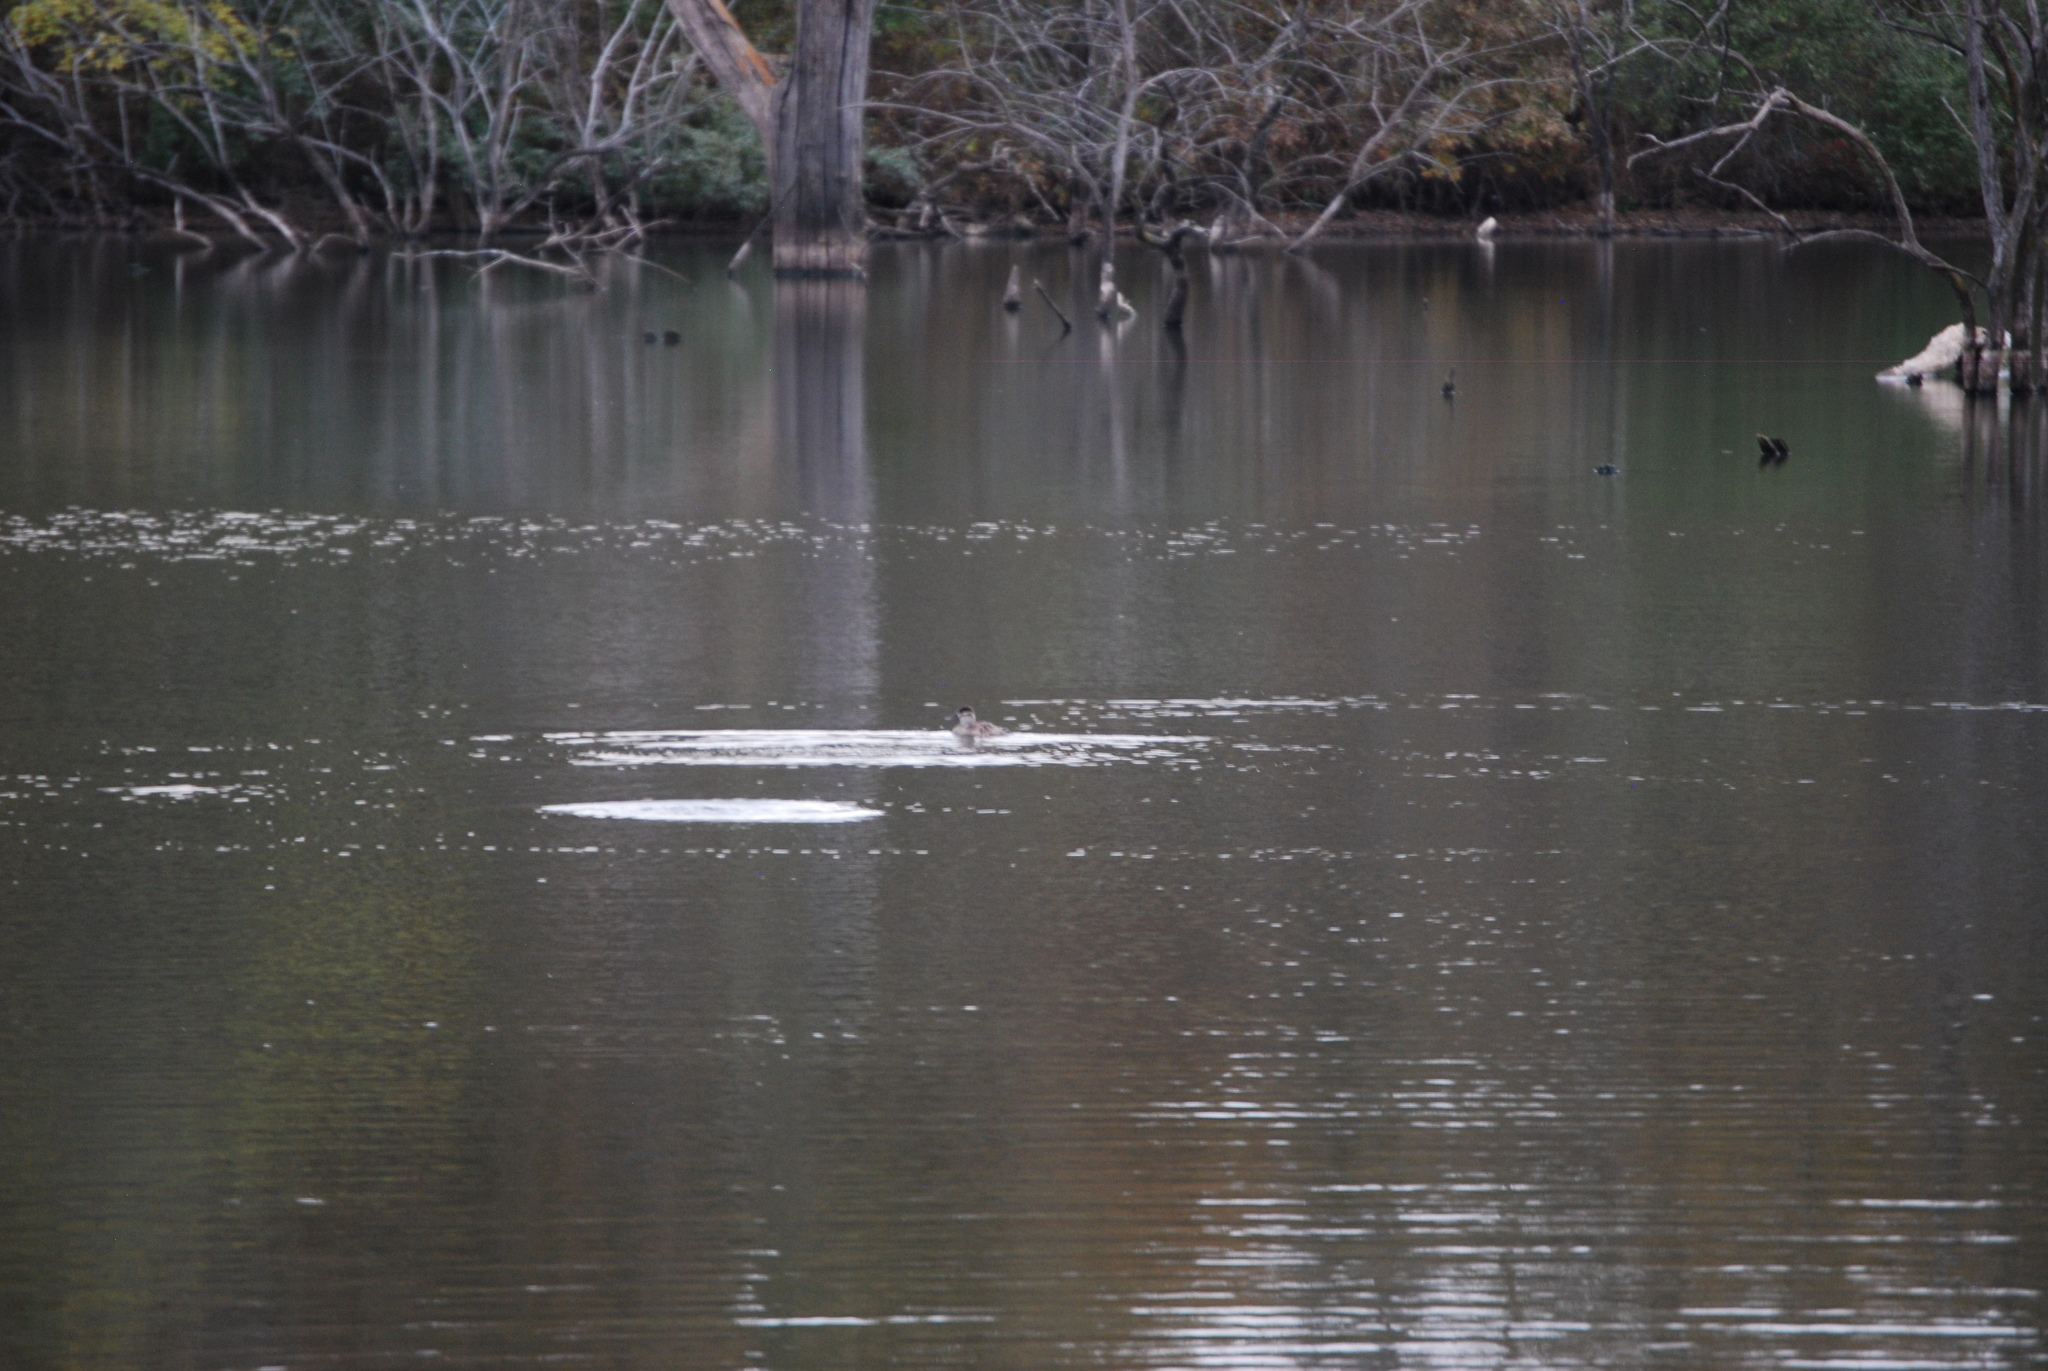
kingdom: Animalia
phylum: Chordata
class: Aves
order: Anseriformes
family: Anatidae
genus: Oxyura
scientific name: Oxyura jamaicensis
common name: Ruddy duck
